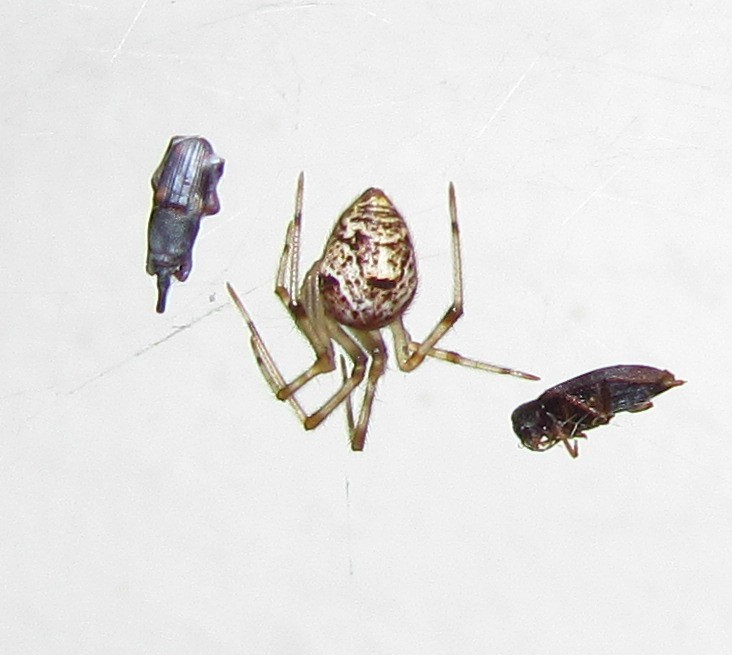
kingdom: Animalia
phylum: Arthropoda
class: Arachnida
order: Araneae
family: Theridiidae
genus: Parasteatoda
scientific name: Parasteatoda tepidariorum
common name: Common house spider
